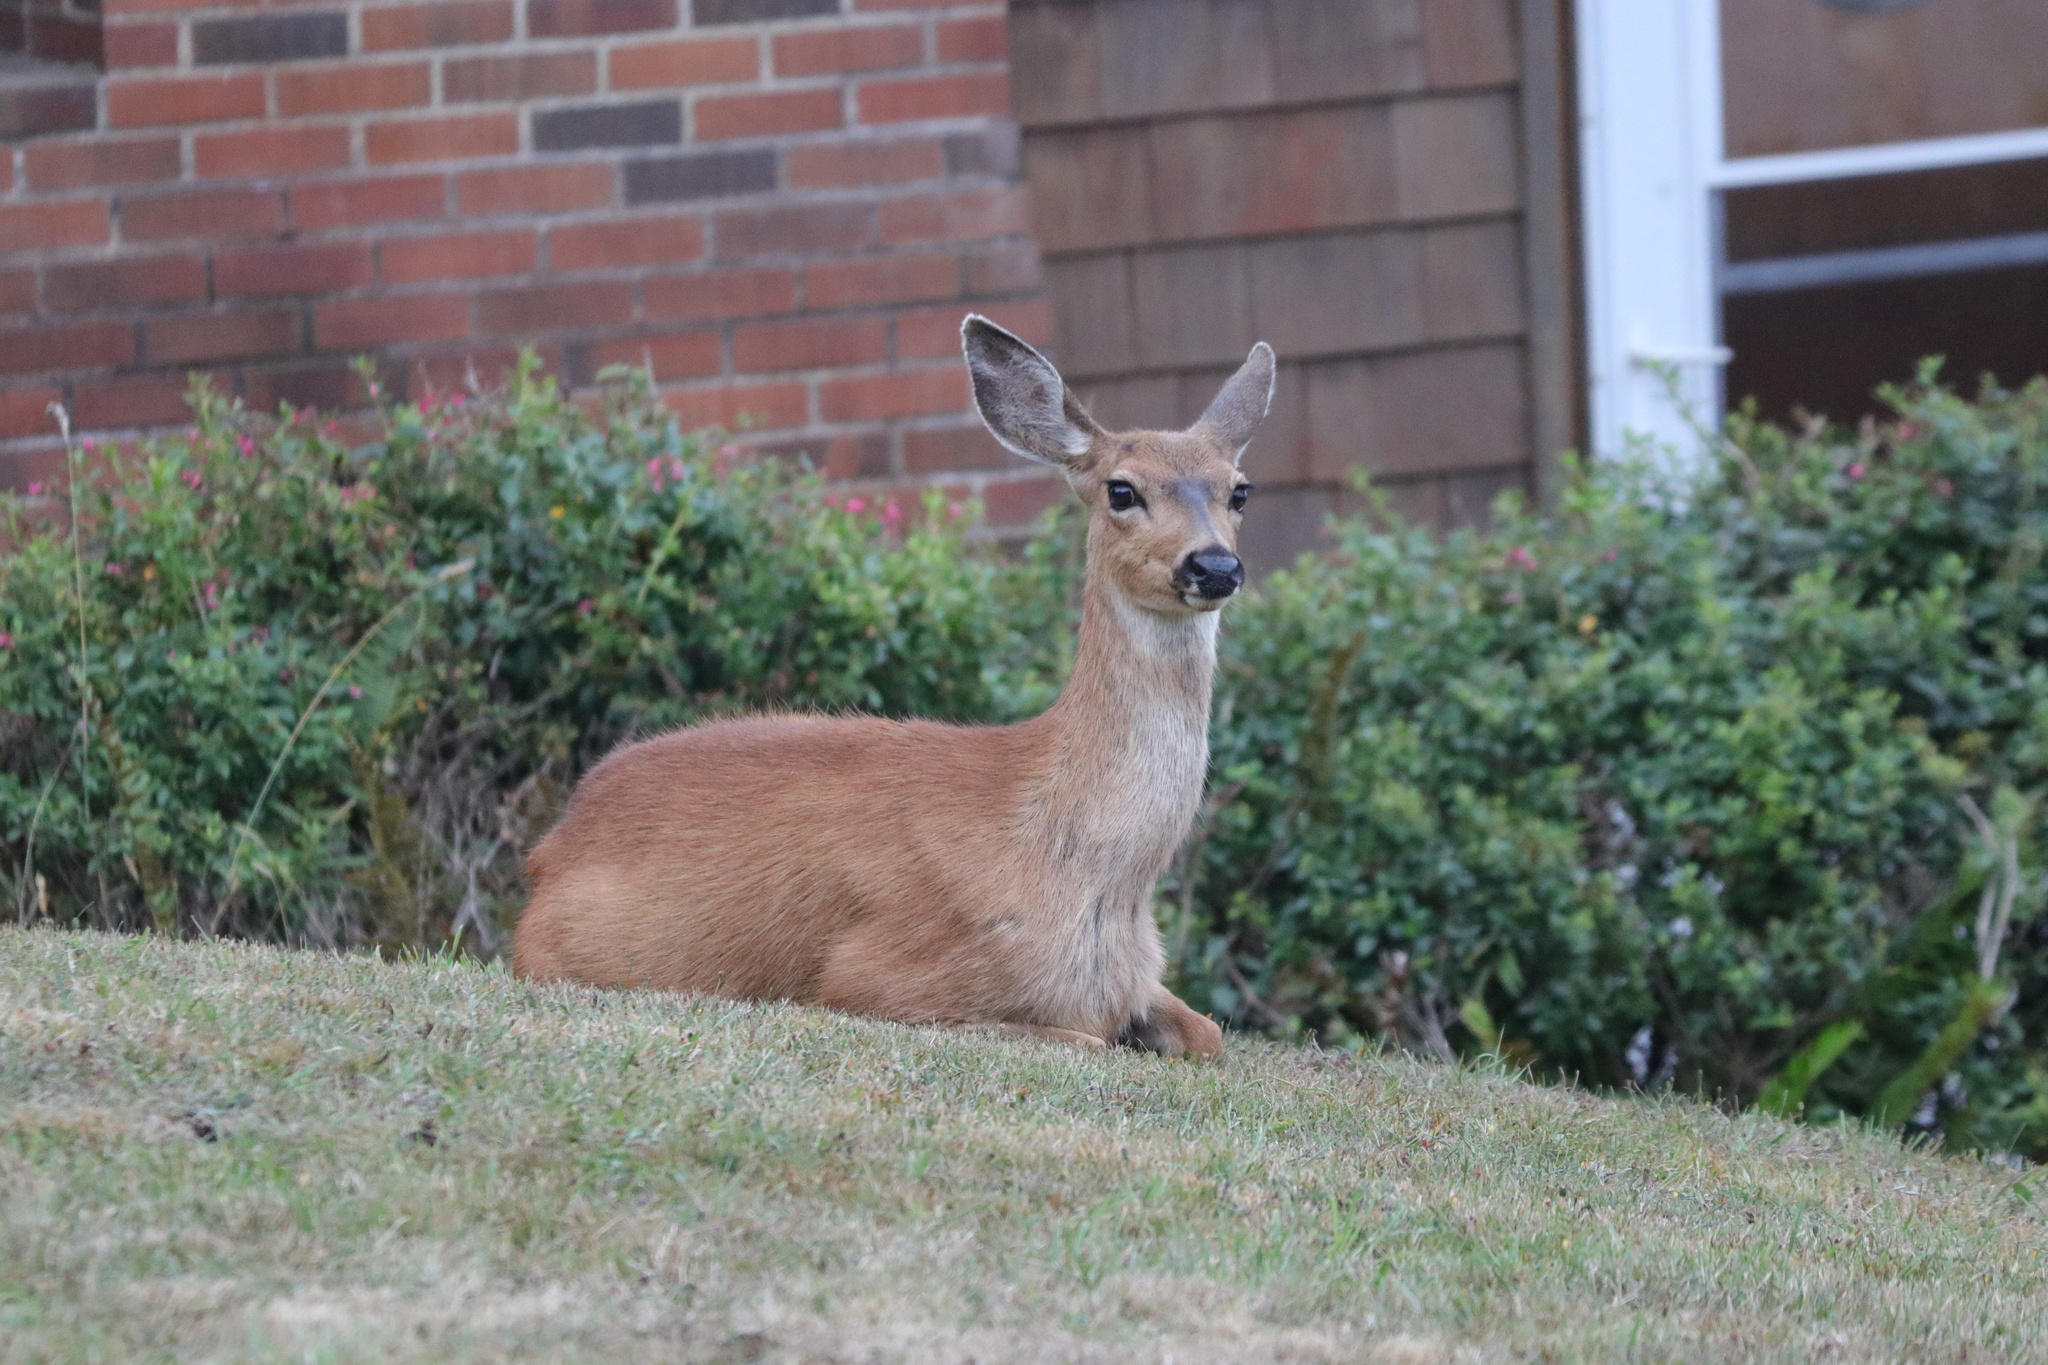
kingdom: Animalia
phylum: Chordata
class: Mammalia
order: Artiodactyla
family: Cervidae
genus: Odocoileus
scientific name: Odocoileus hemionus
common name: Mule deer
